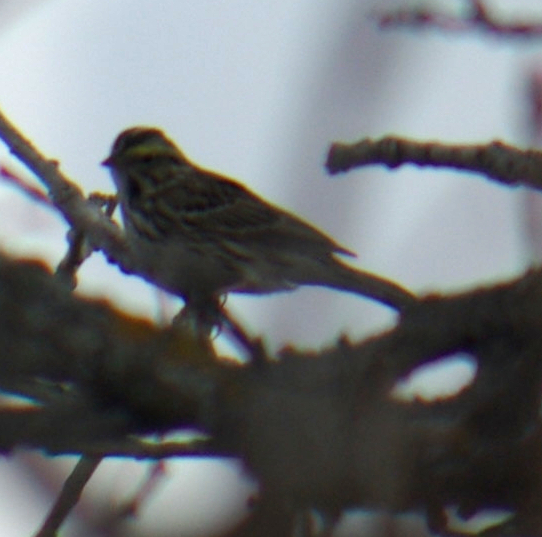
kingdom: Animalia
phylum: Chordata
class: Aves
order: Passeriformes
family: Passerellidae
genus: Passerculus
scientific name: Passerculus sandwichensis
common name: Savannah sparrow
